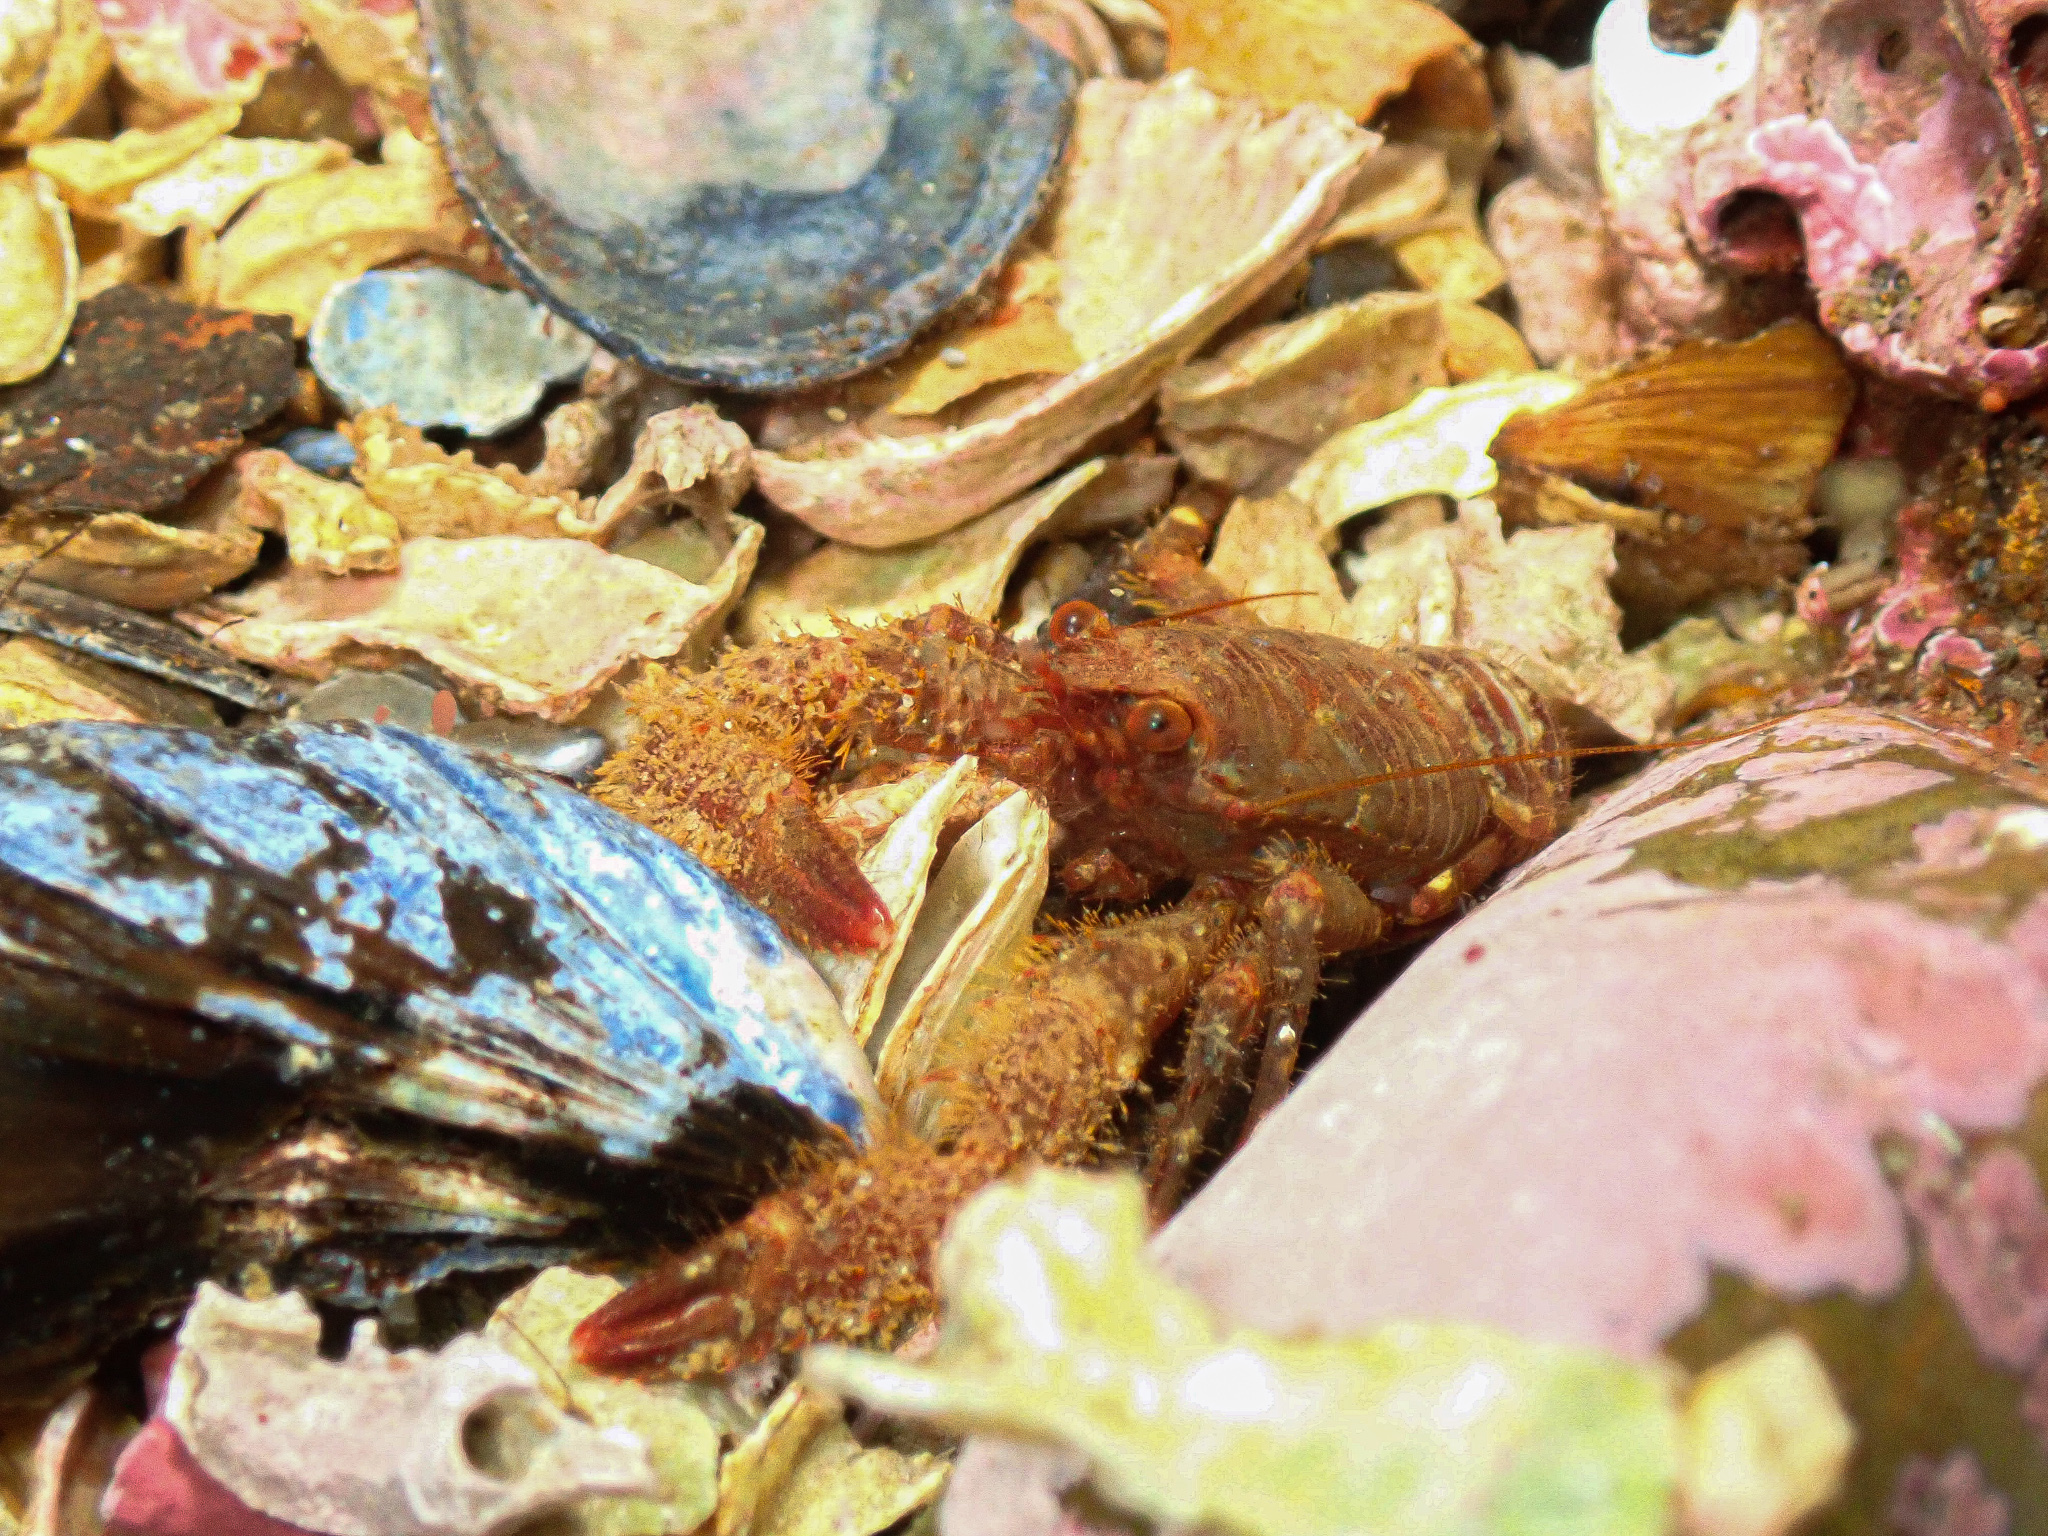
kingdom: Animalia
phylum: Arthropoda
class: Malacostraca
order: Decapoda
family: Galatheidae
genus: Galathea
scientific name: Galathea squamifera
